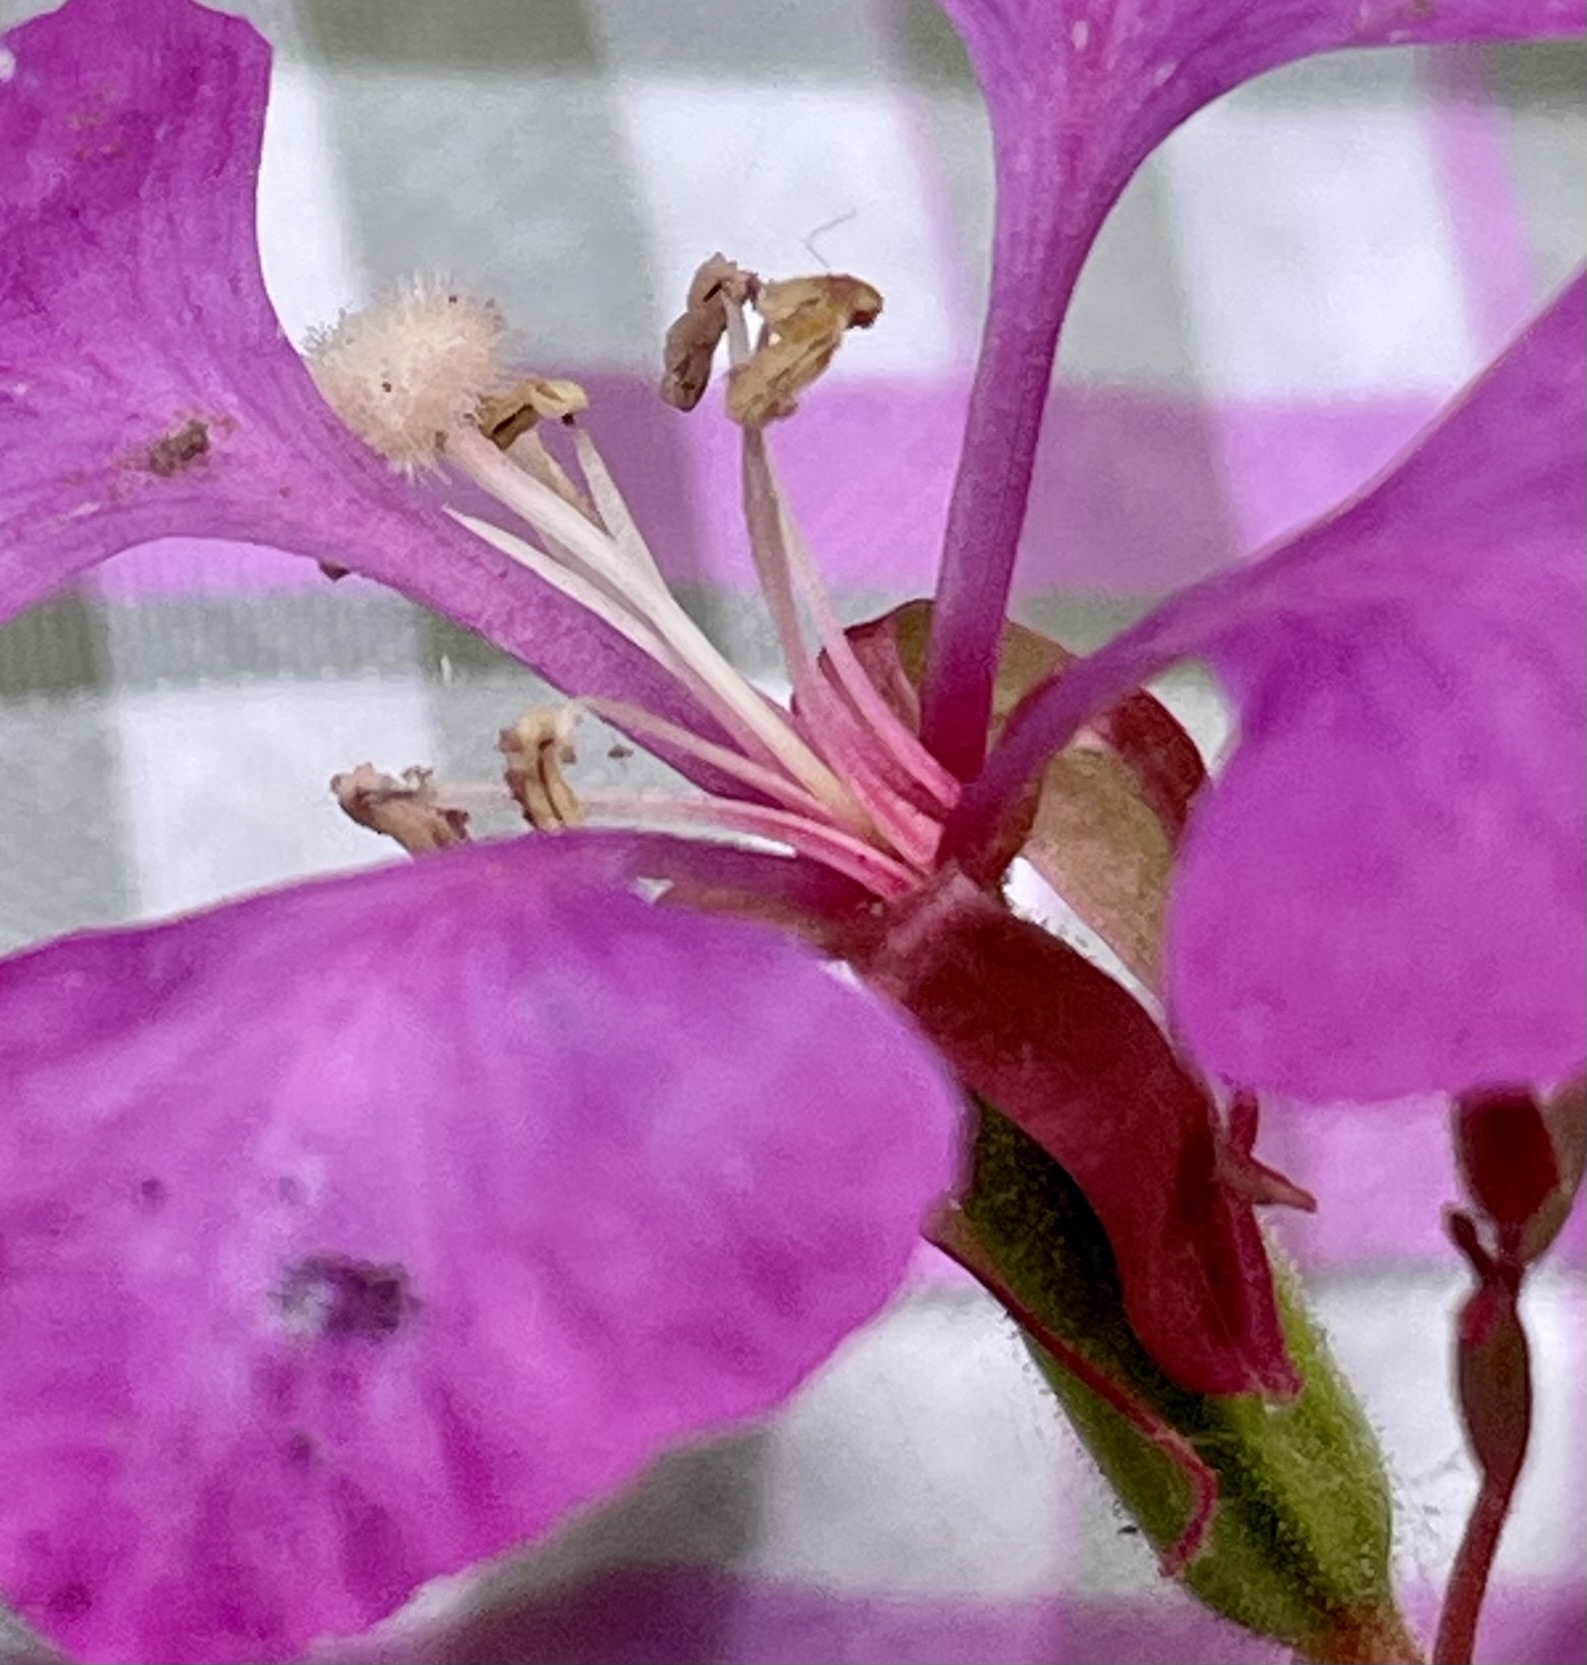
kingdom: Plantae
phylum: Tracheophyta
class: Magnoliopsida
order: Myrtales
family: Onagraceae
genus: Clarkia
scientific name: Clarkia unguiculata
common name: Clarkia
